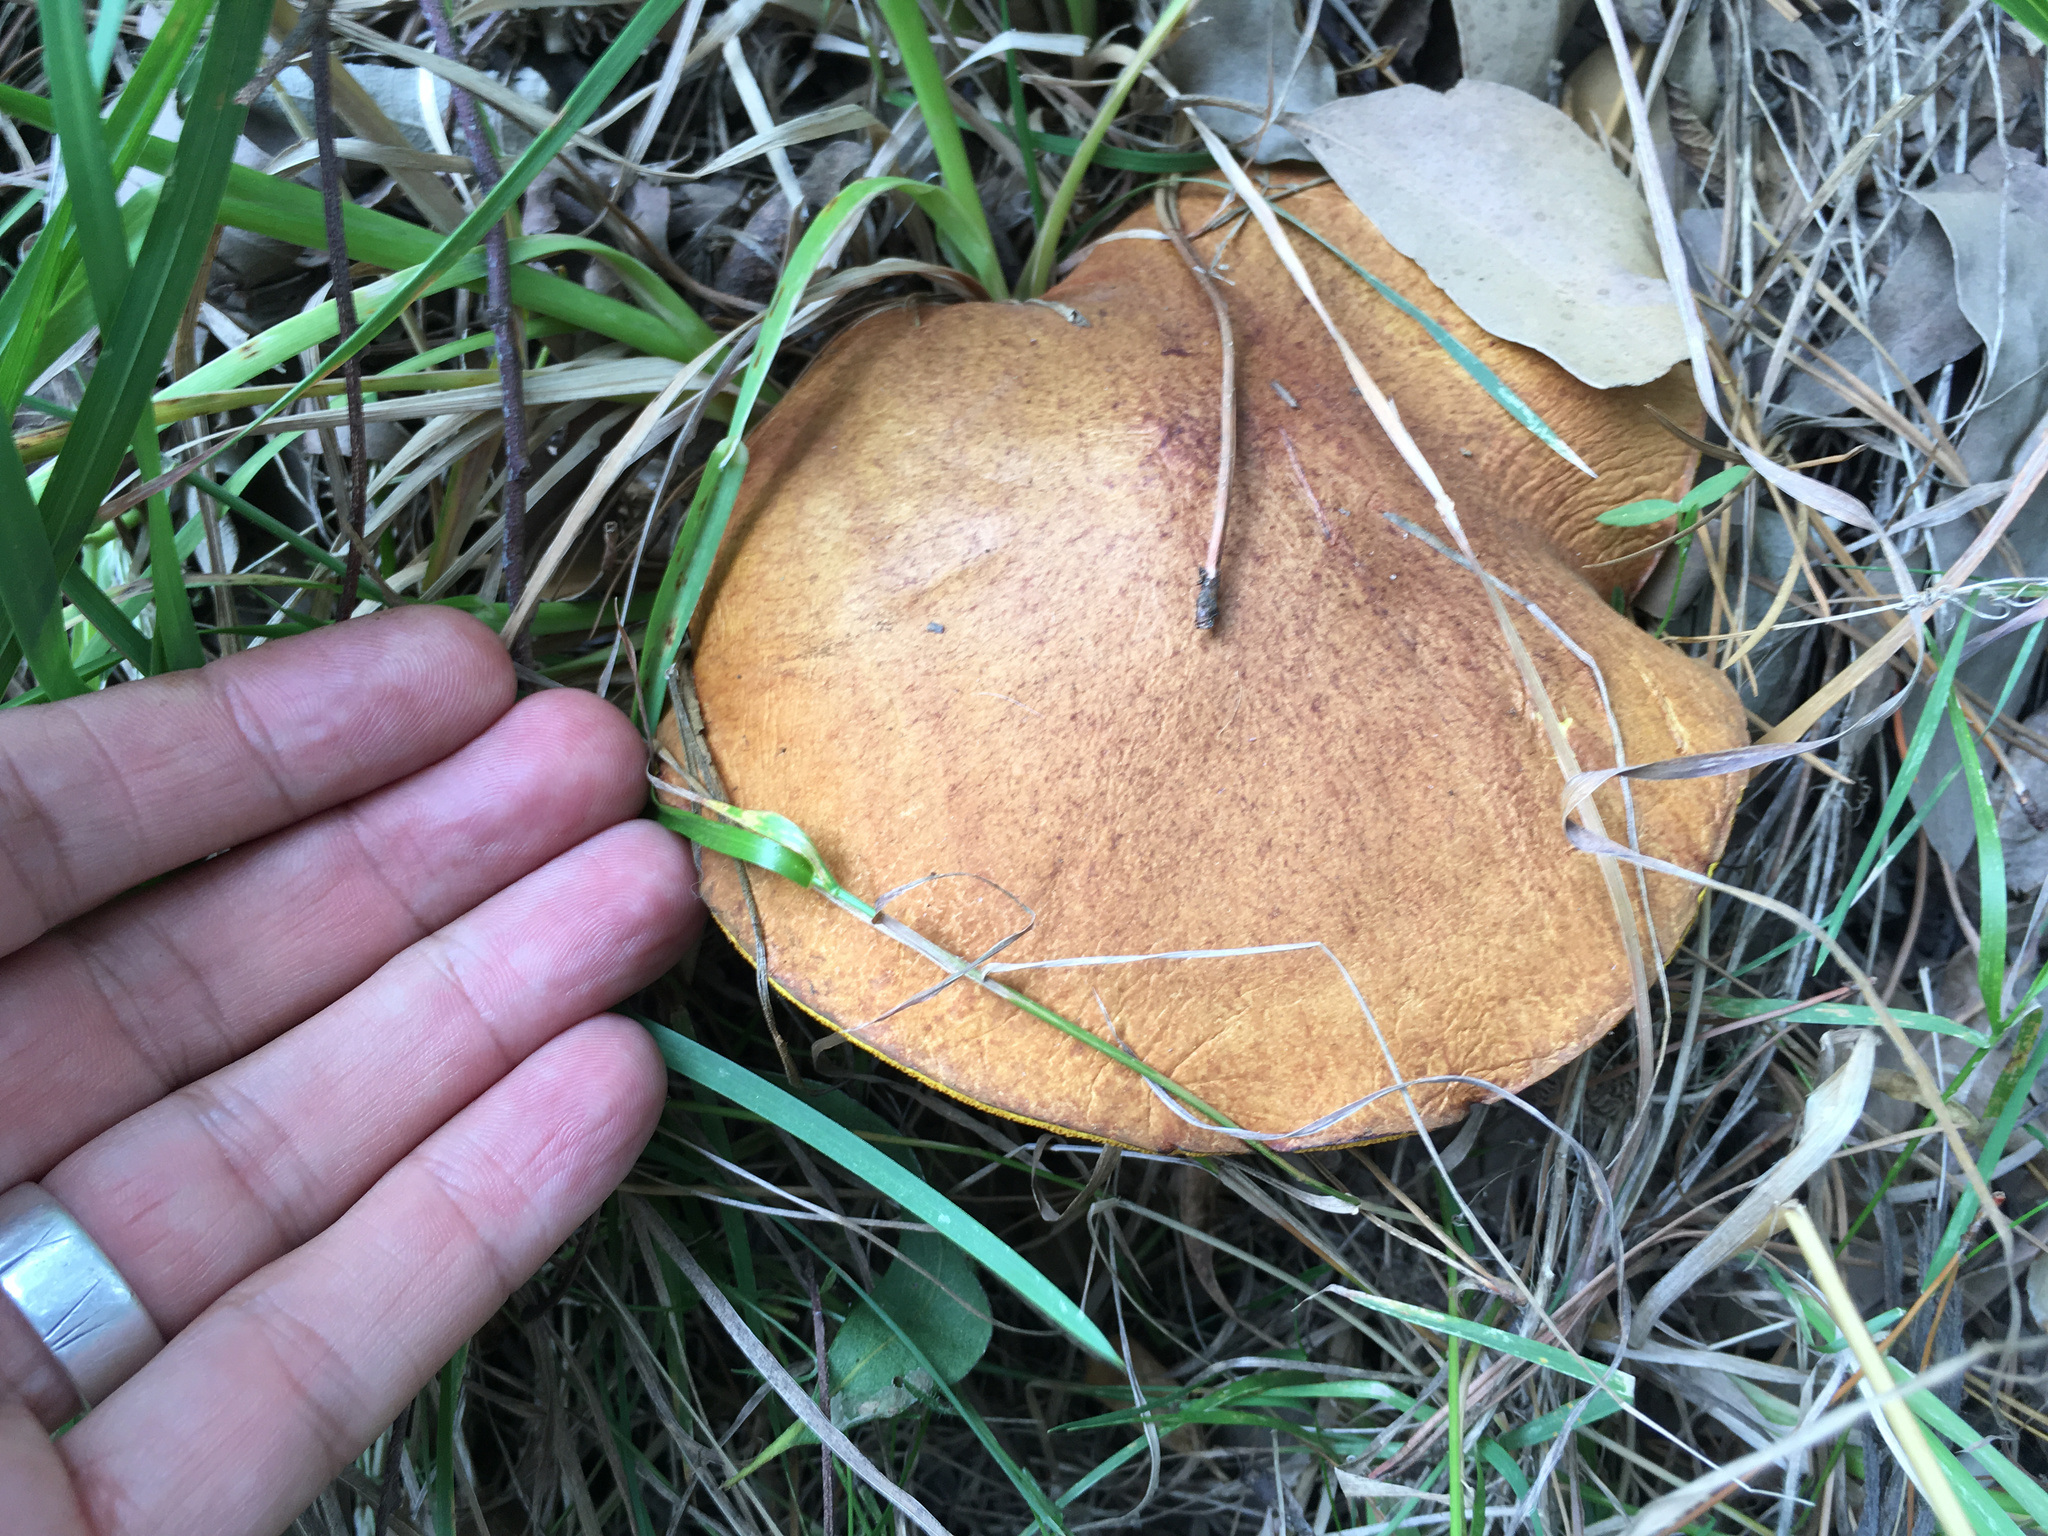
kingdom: Fungi
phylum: Basidiomycota
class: Agaricomycetes
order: Boletales
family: Suillaceae
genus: Suillus
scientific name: Suillus granulatus
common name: Weeping bolete
